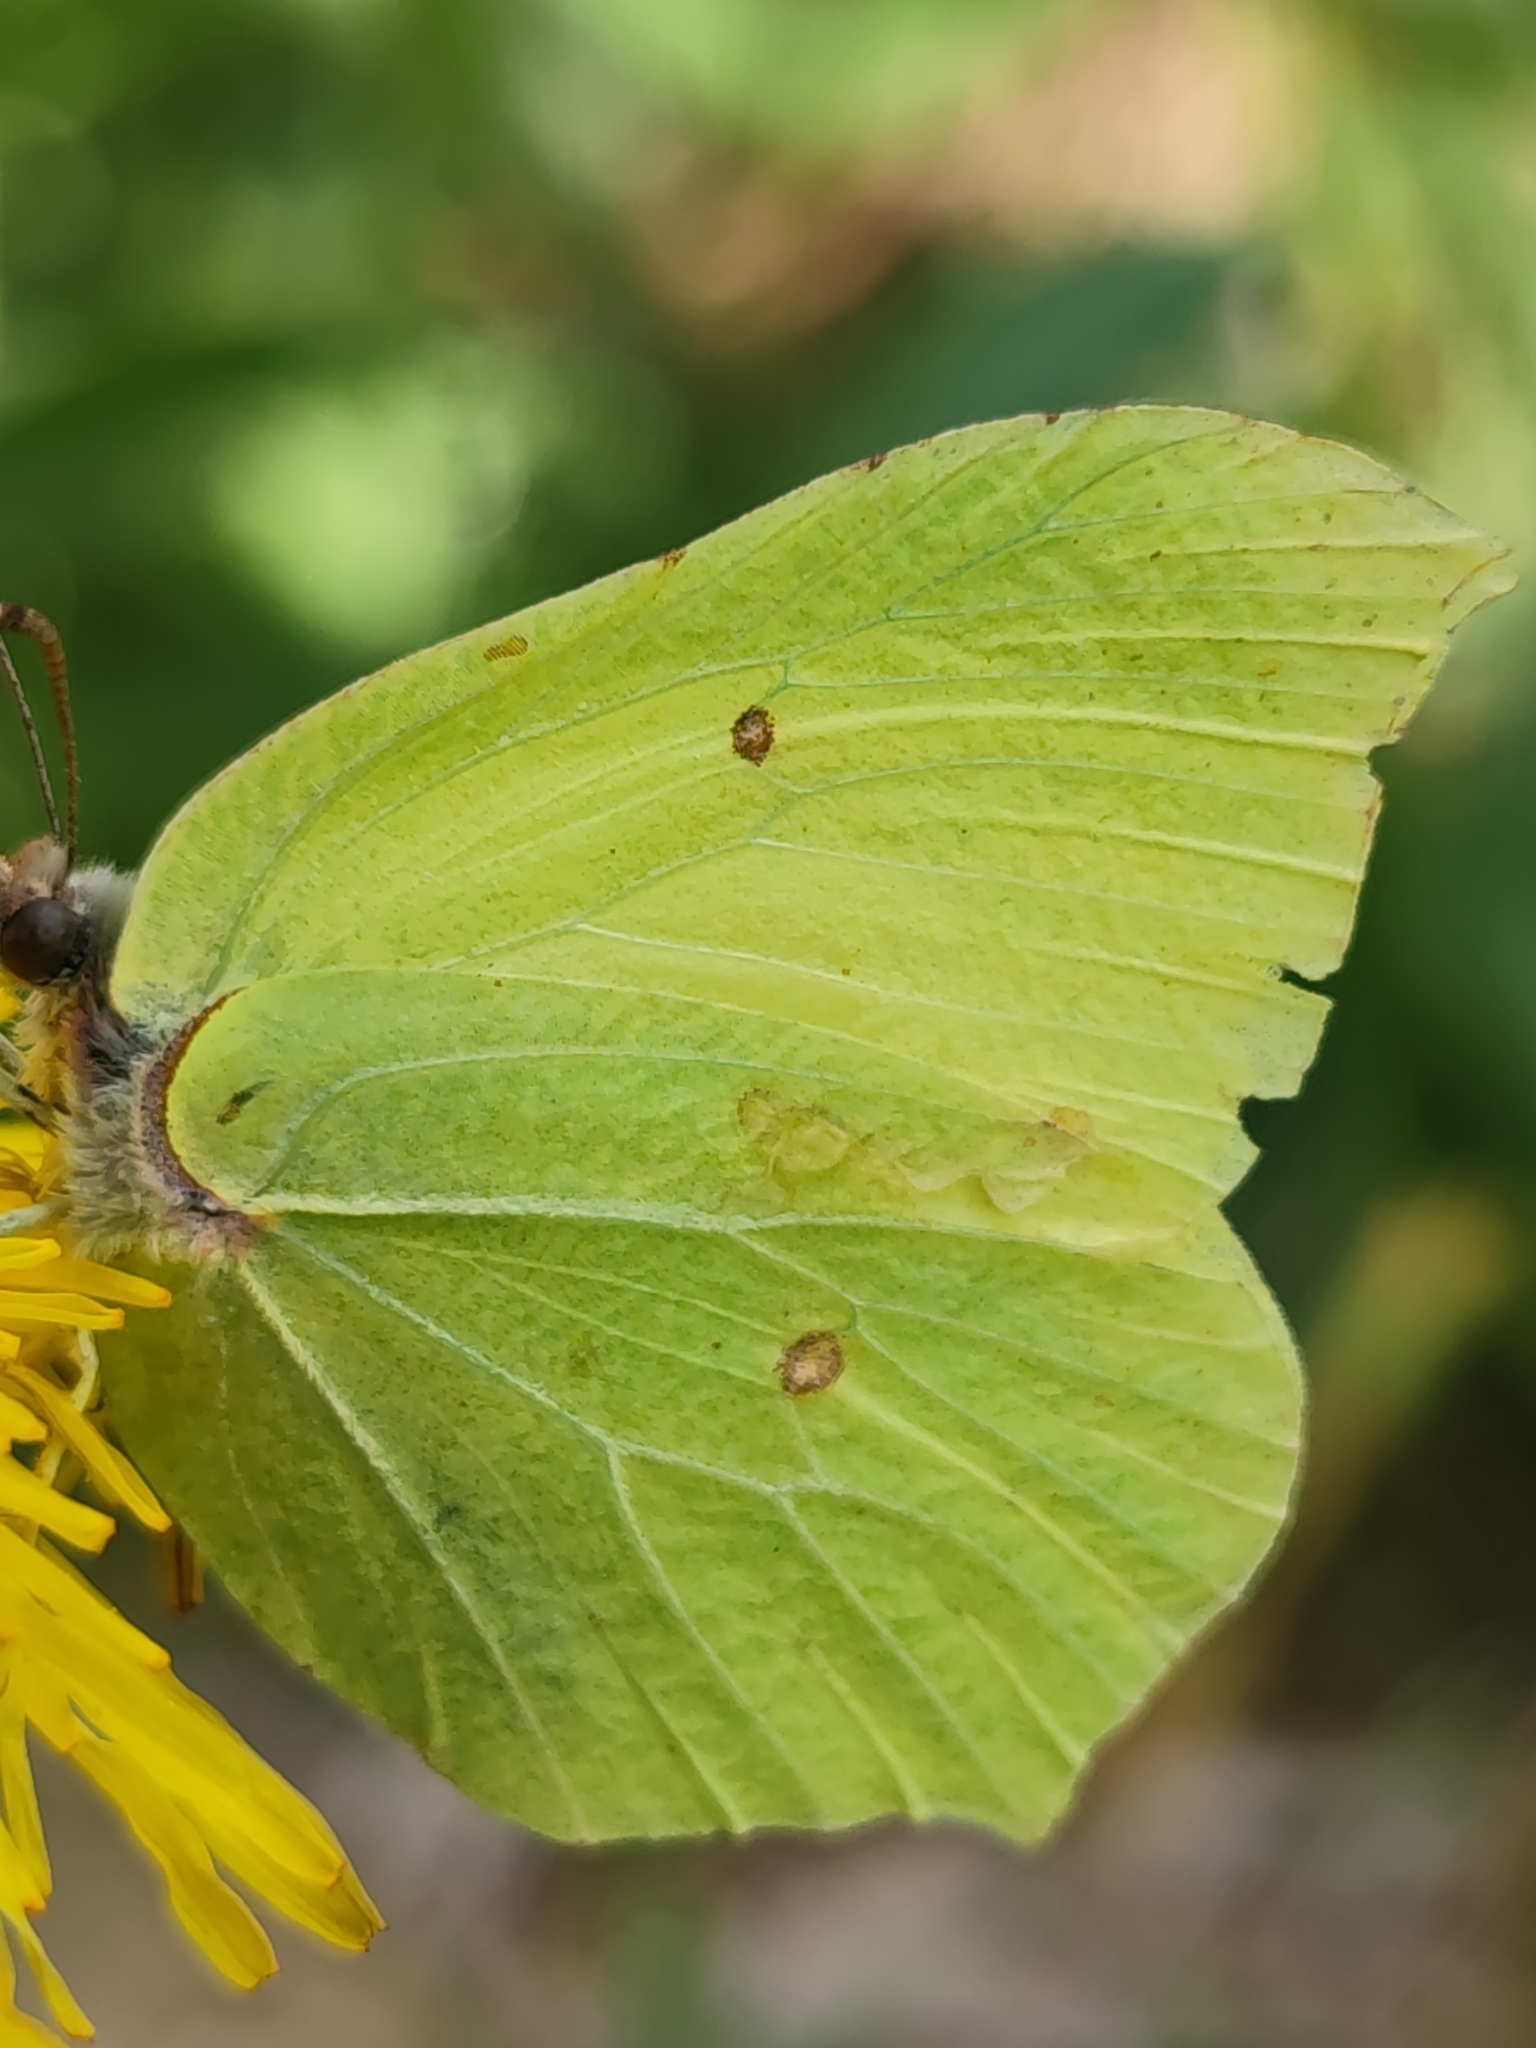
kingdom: Animalia
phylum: Arthropoda
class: Insecta
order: Lepidoptera
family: Pieridae
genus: Gonepteryx
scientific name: Gonepteryx rhamni
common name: Brimstone
